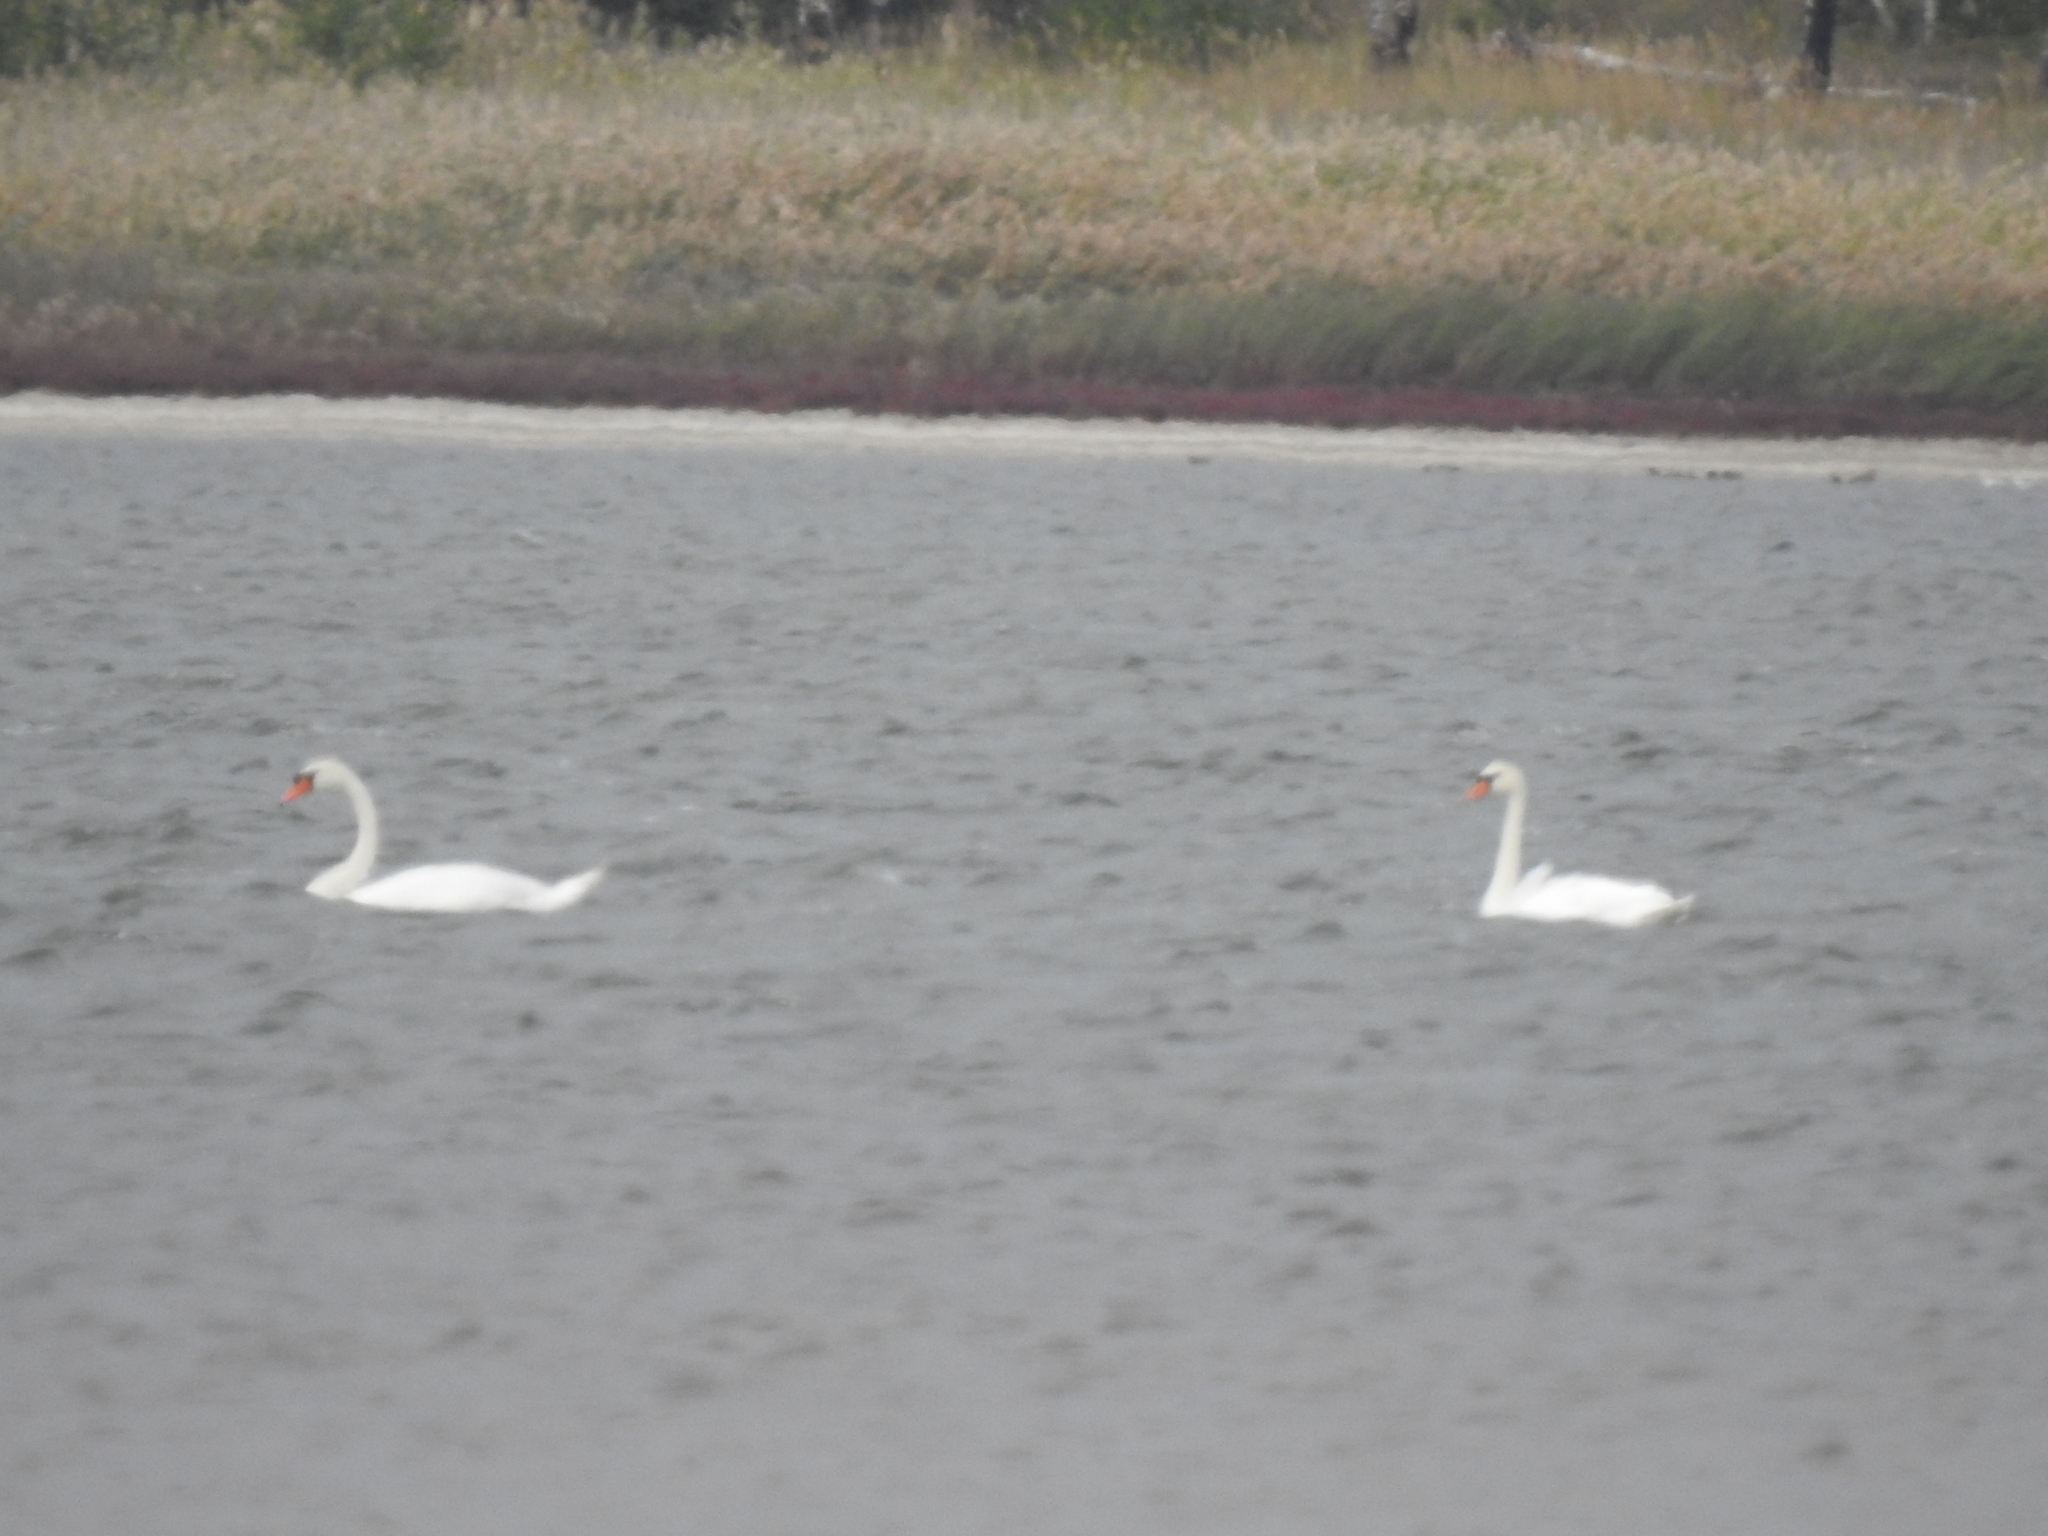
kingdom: Animalia
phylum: Chordata
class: Aves
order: Anseriformes
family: Anatidae
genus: Cygnus
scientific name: Cygnus olor
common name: Mute swan
